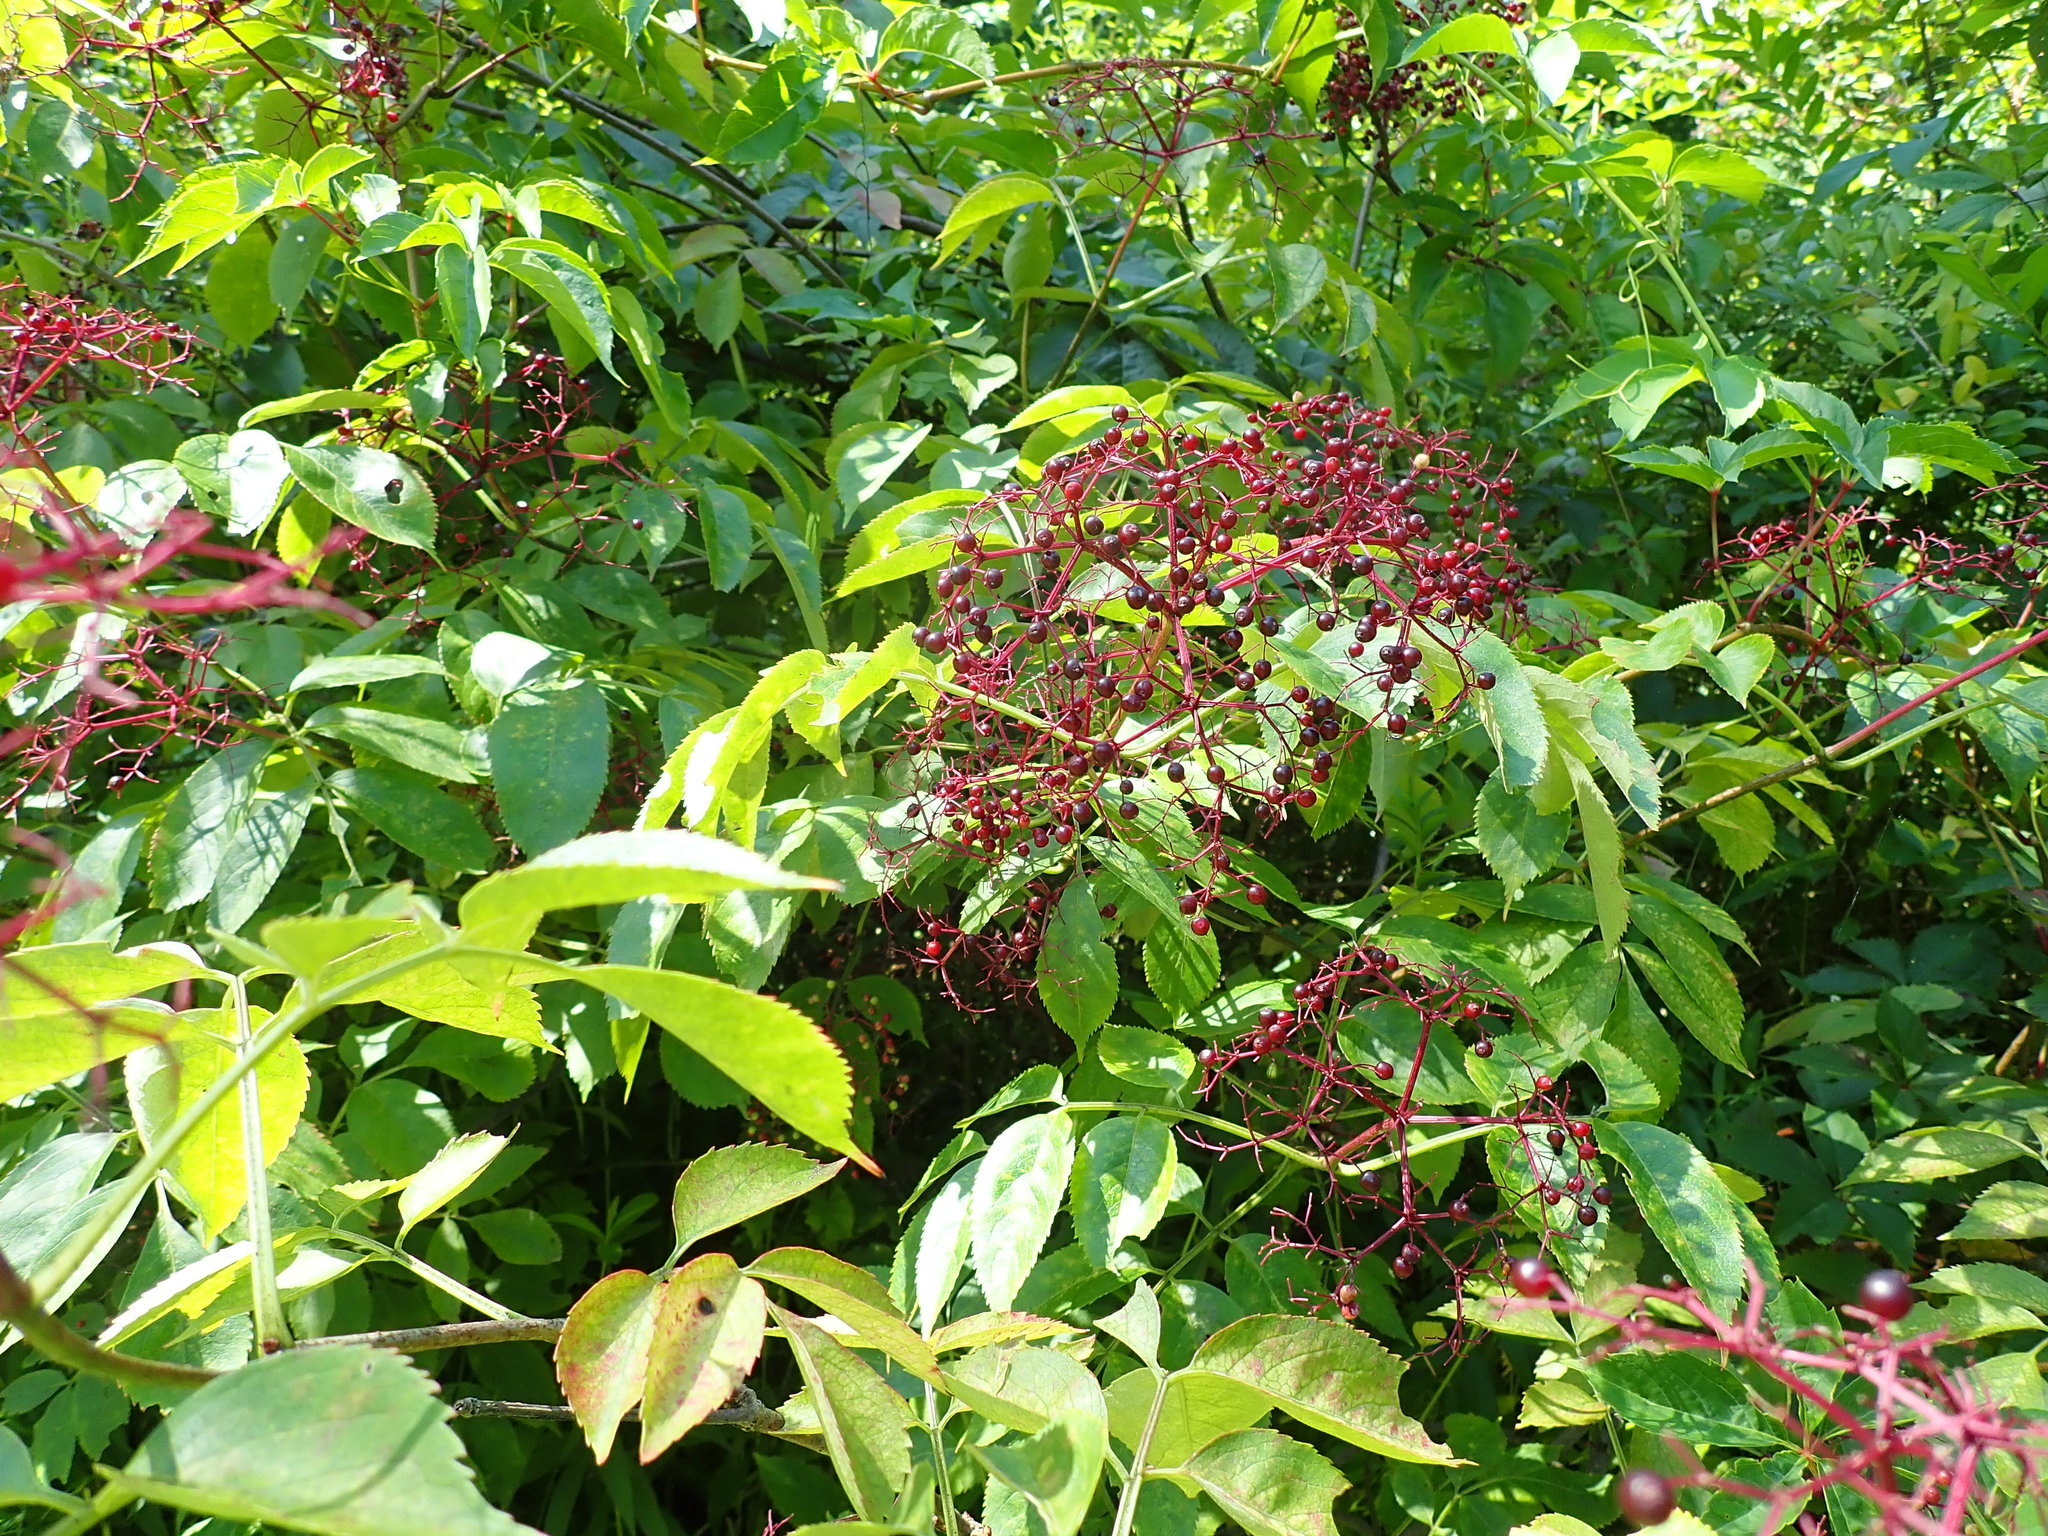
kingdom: Plantae
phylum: Tracheophyta
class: Magnoliopsida
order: Dipsacales
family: Viburnaceae
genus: Sambucus
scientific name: Sambucus canadensis
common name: American elder
